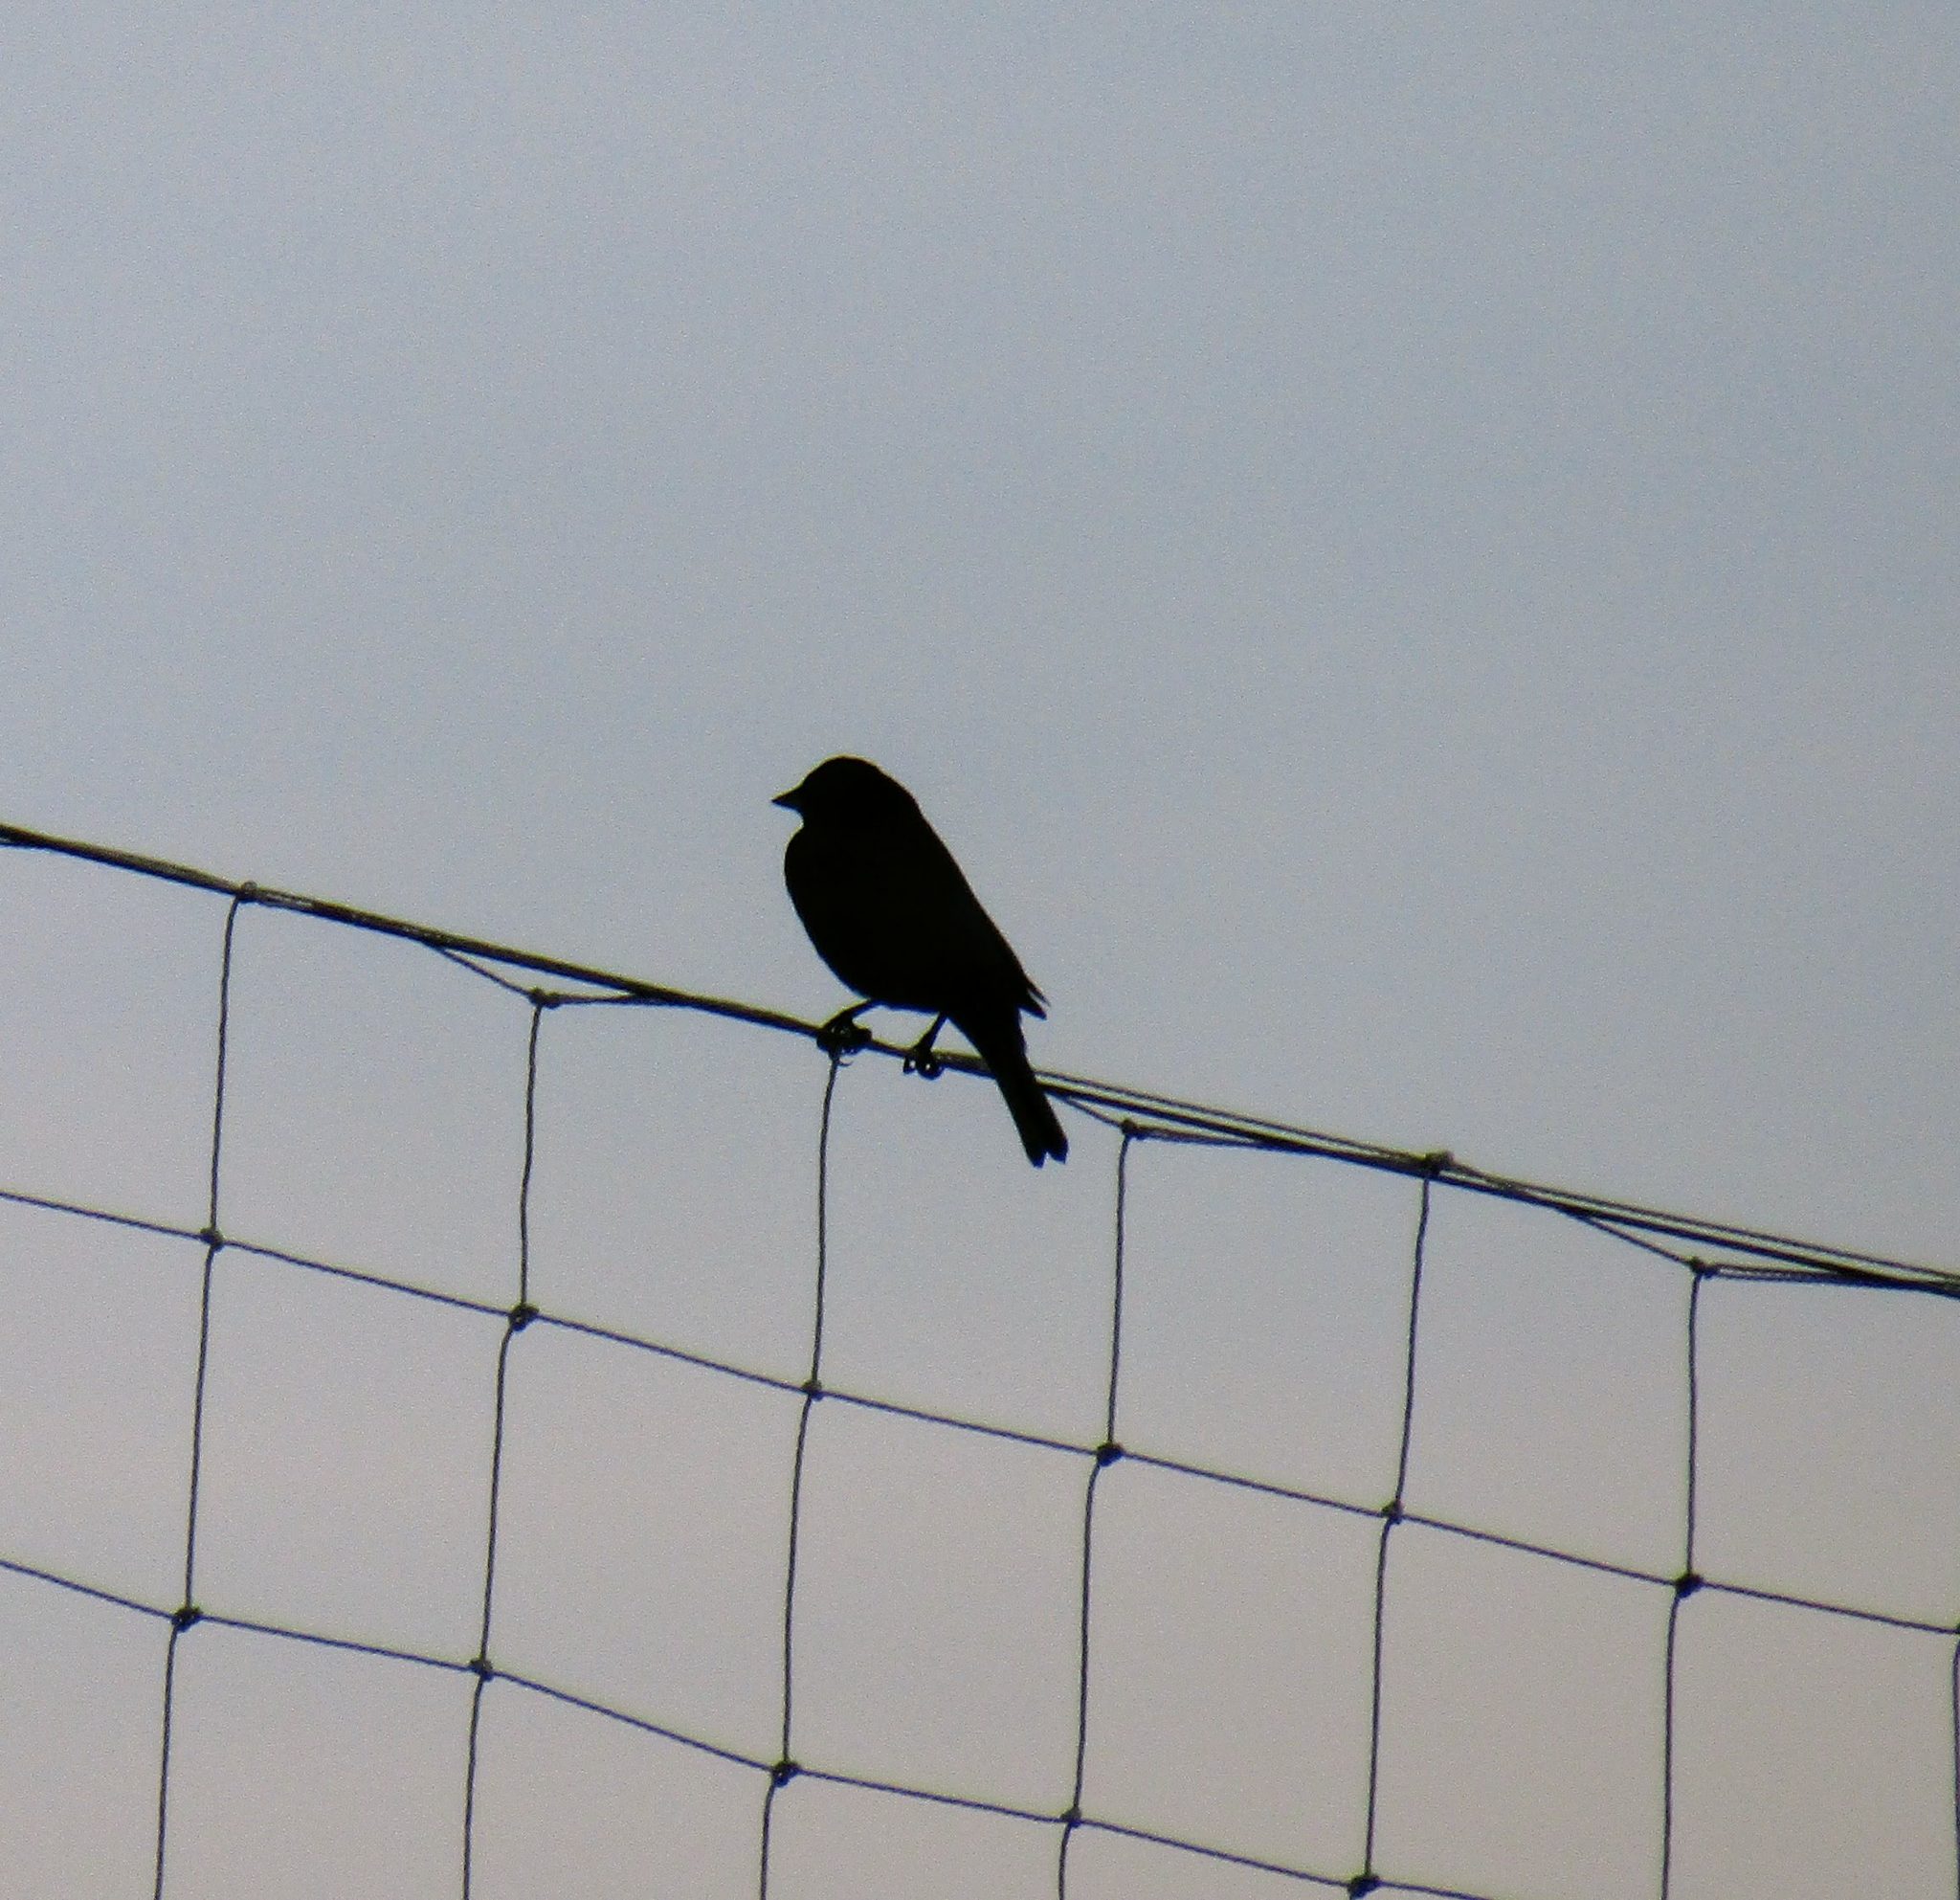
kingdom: Animalia
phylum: Chordata
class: Aves
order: Passeriformes
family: Icteridae
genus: Molothrus
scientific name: Molothrus bonariensis
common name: Shiny cowbird
